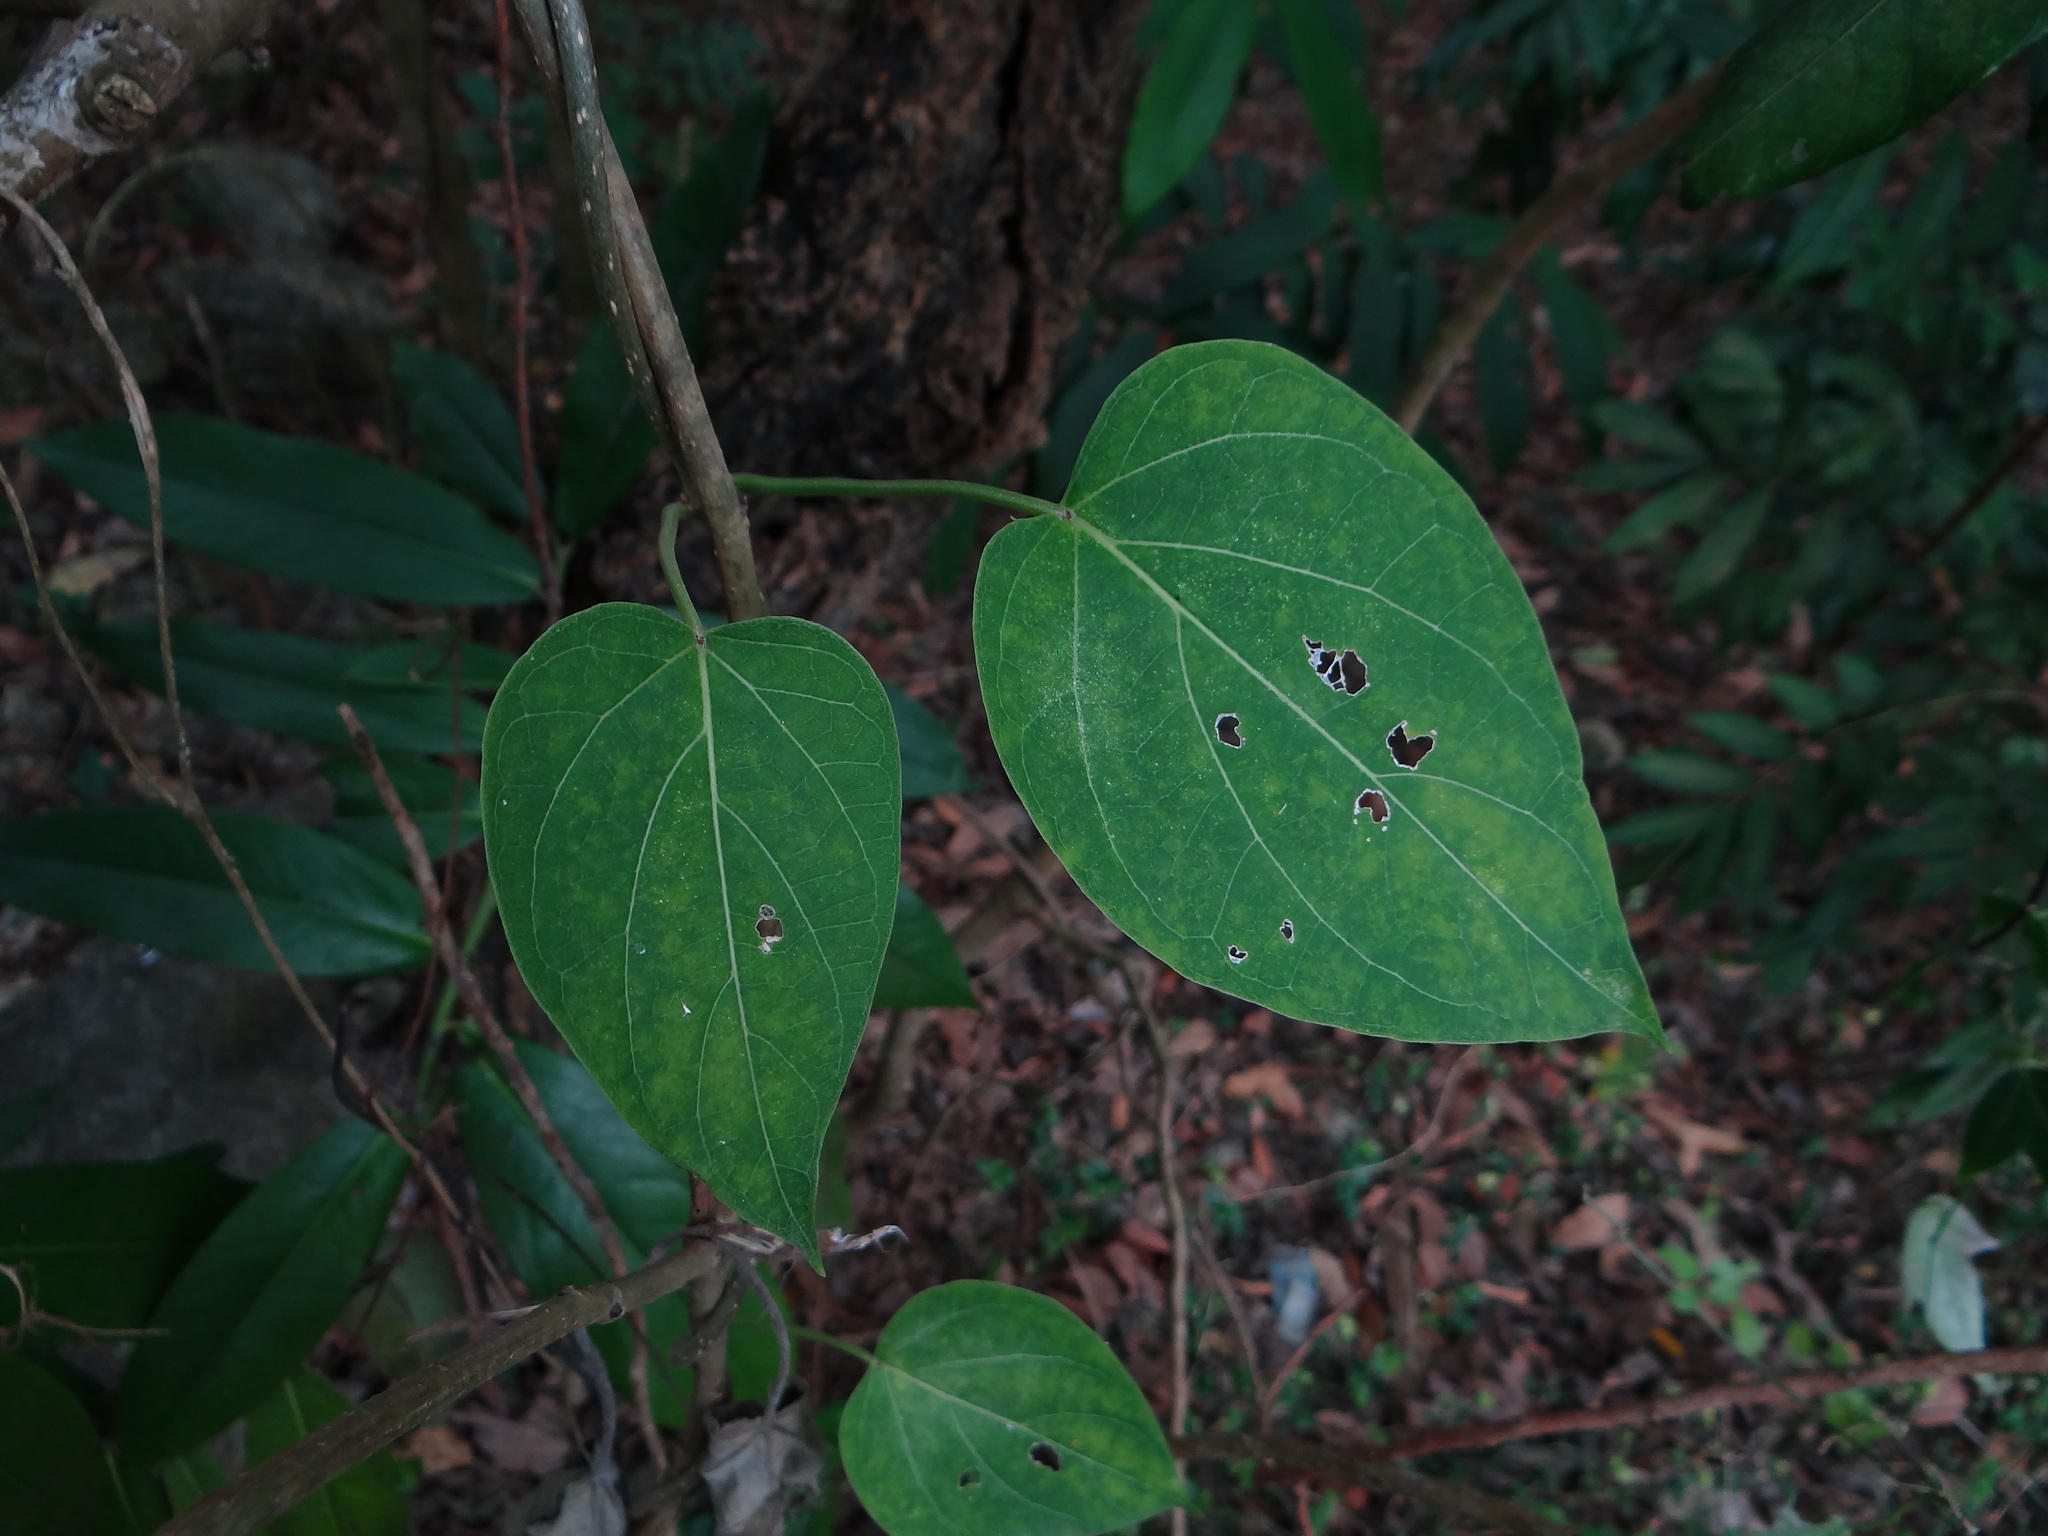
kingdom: Plantae
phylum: Tracheophyta
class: Magnoliopsida
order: Gentianales
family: Apocynaceae
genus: Stephanotis
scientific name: Stephanotis volubilis
